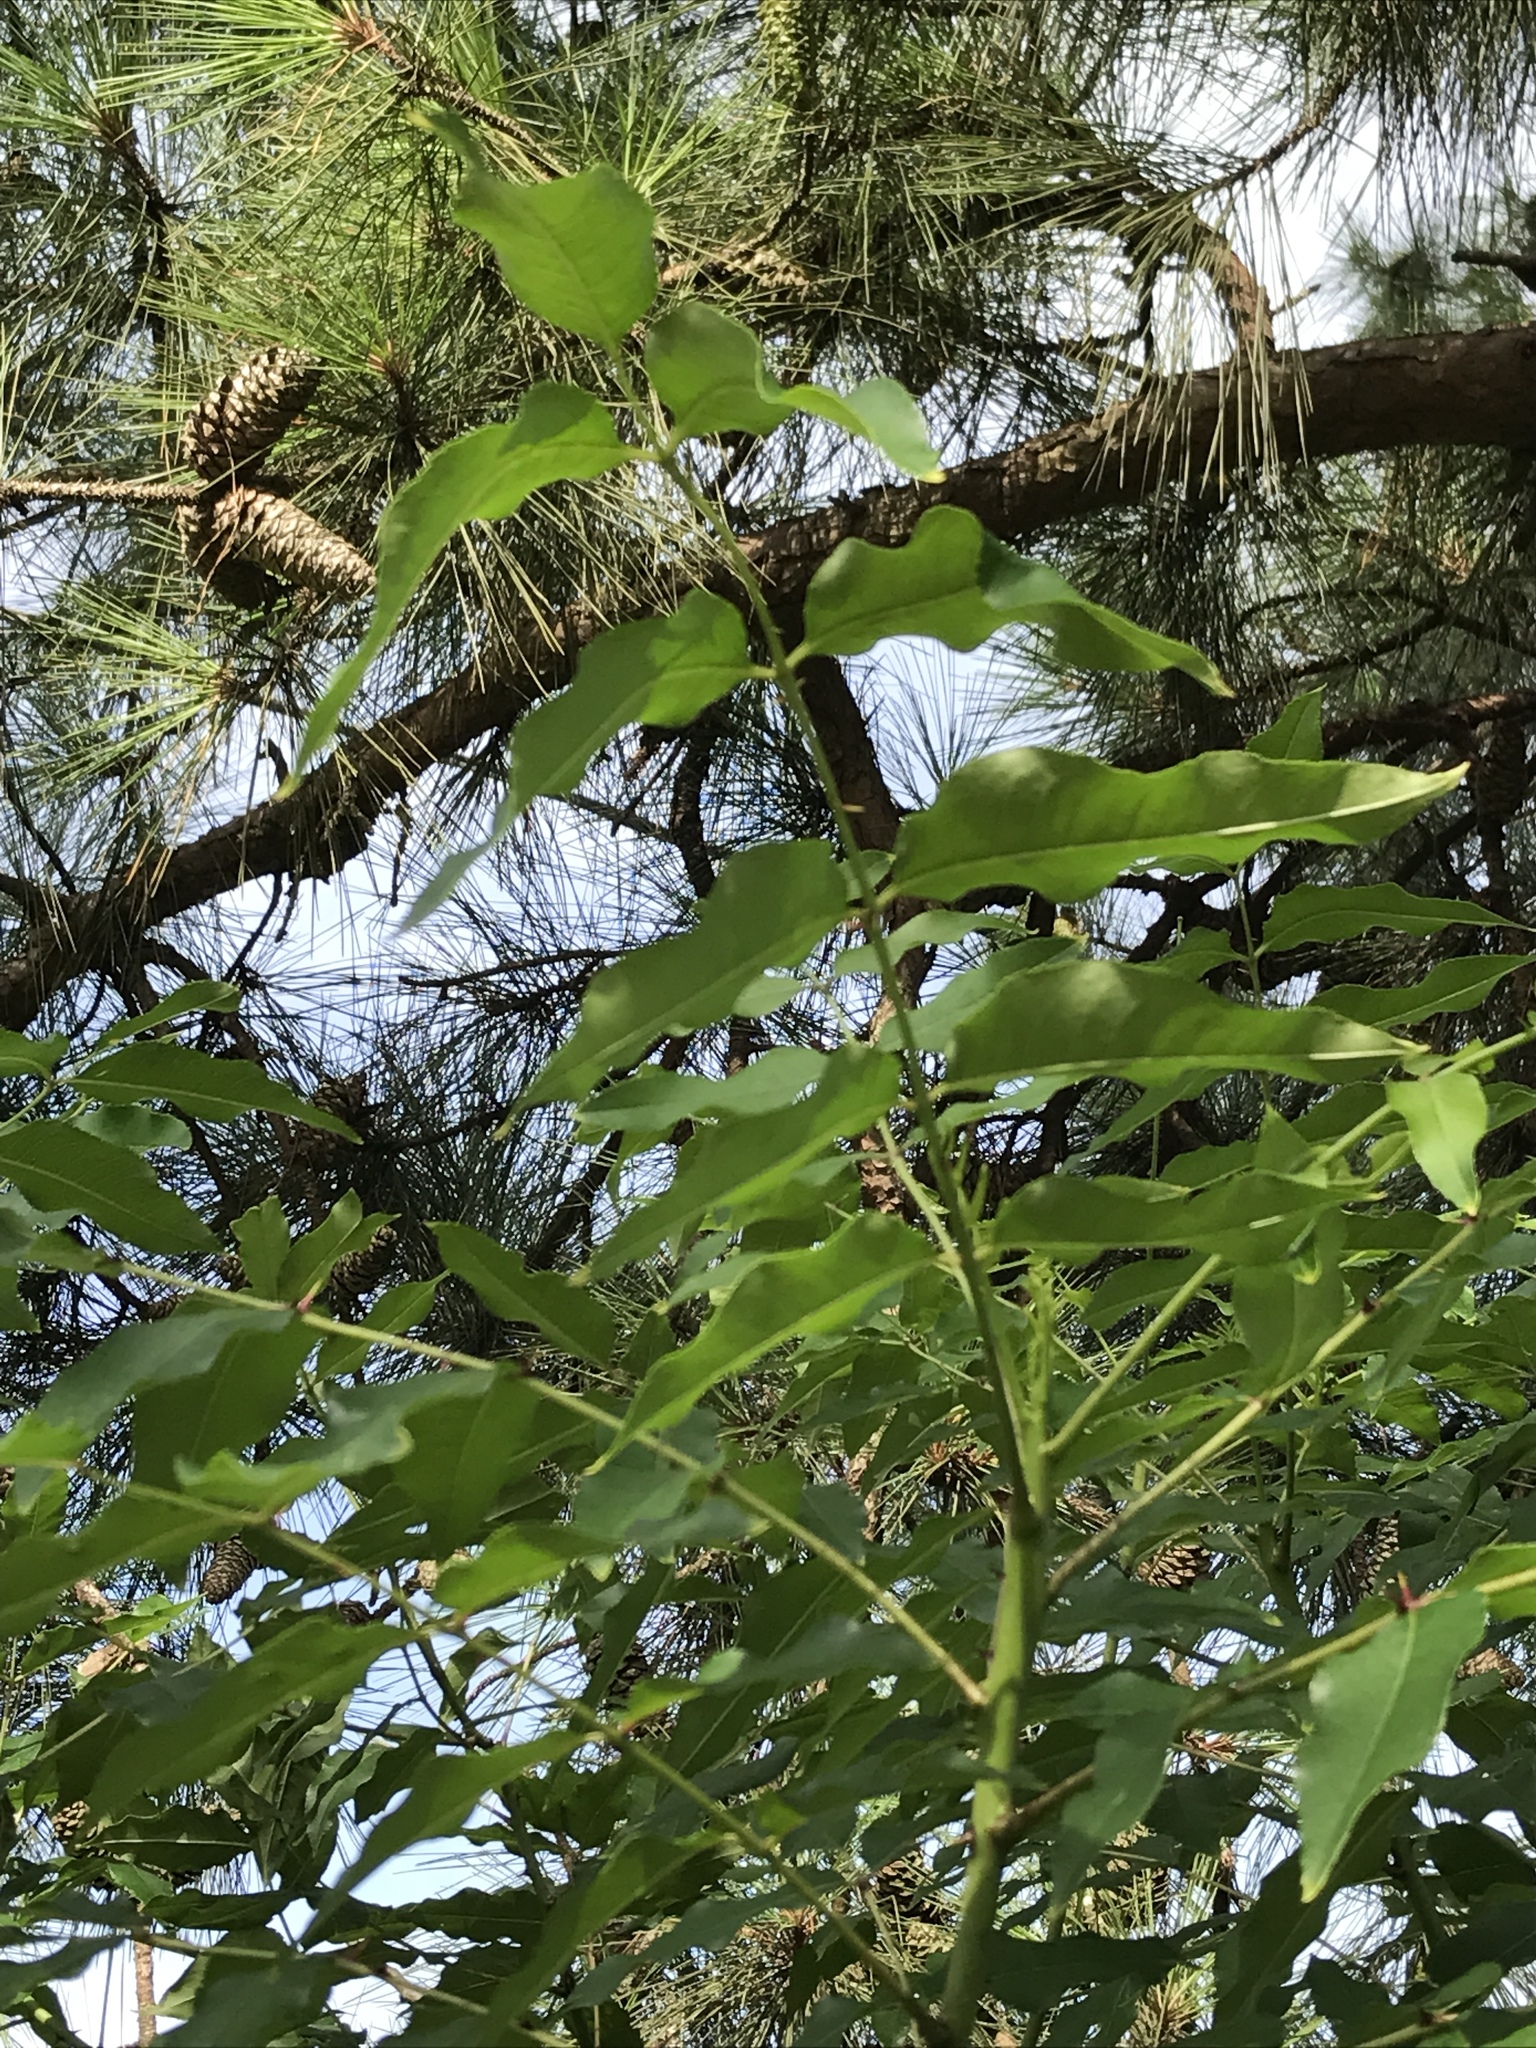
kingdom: Plantae
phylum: Tracheophyta
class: Magnoliopsida
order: Sapindales
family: Rutaceae
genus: Zanthoxylum
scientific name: Zanthoxylum clava-herculis
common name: Hercules'-club
